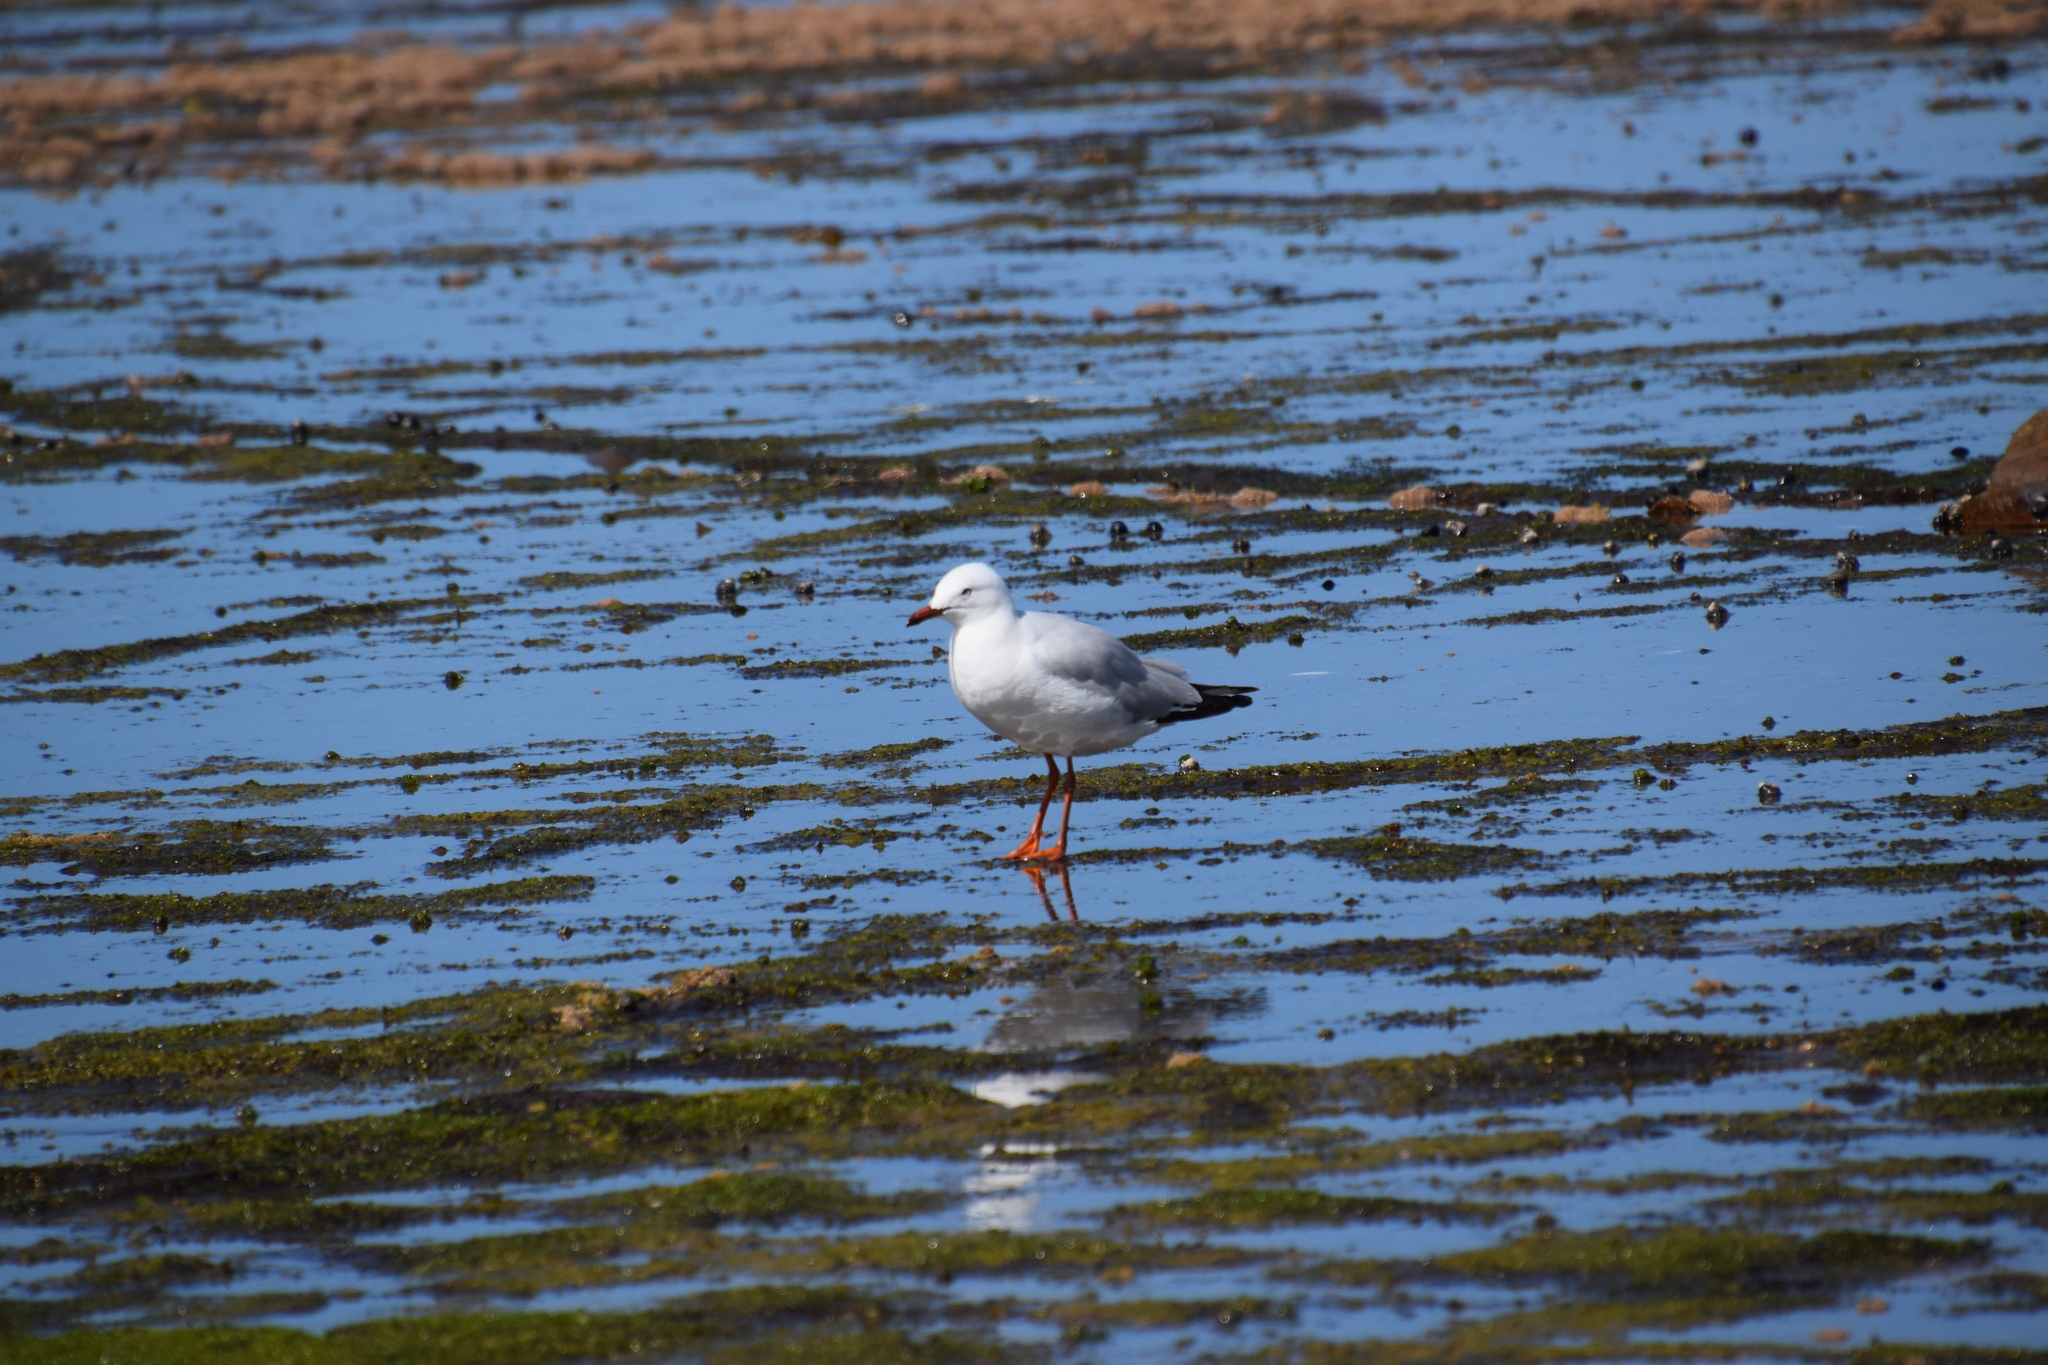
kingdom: Animalia
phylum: Chordata
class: Aves
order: Charadriiformes
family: Laridae
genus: Chroicocephalus
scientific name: Chroicocephalus novaehollandiae
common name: Silver gull
